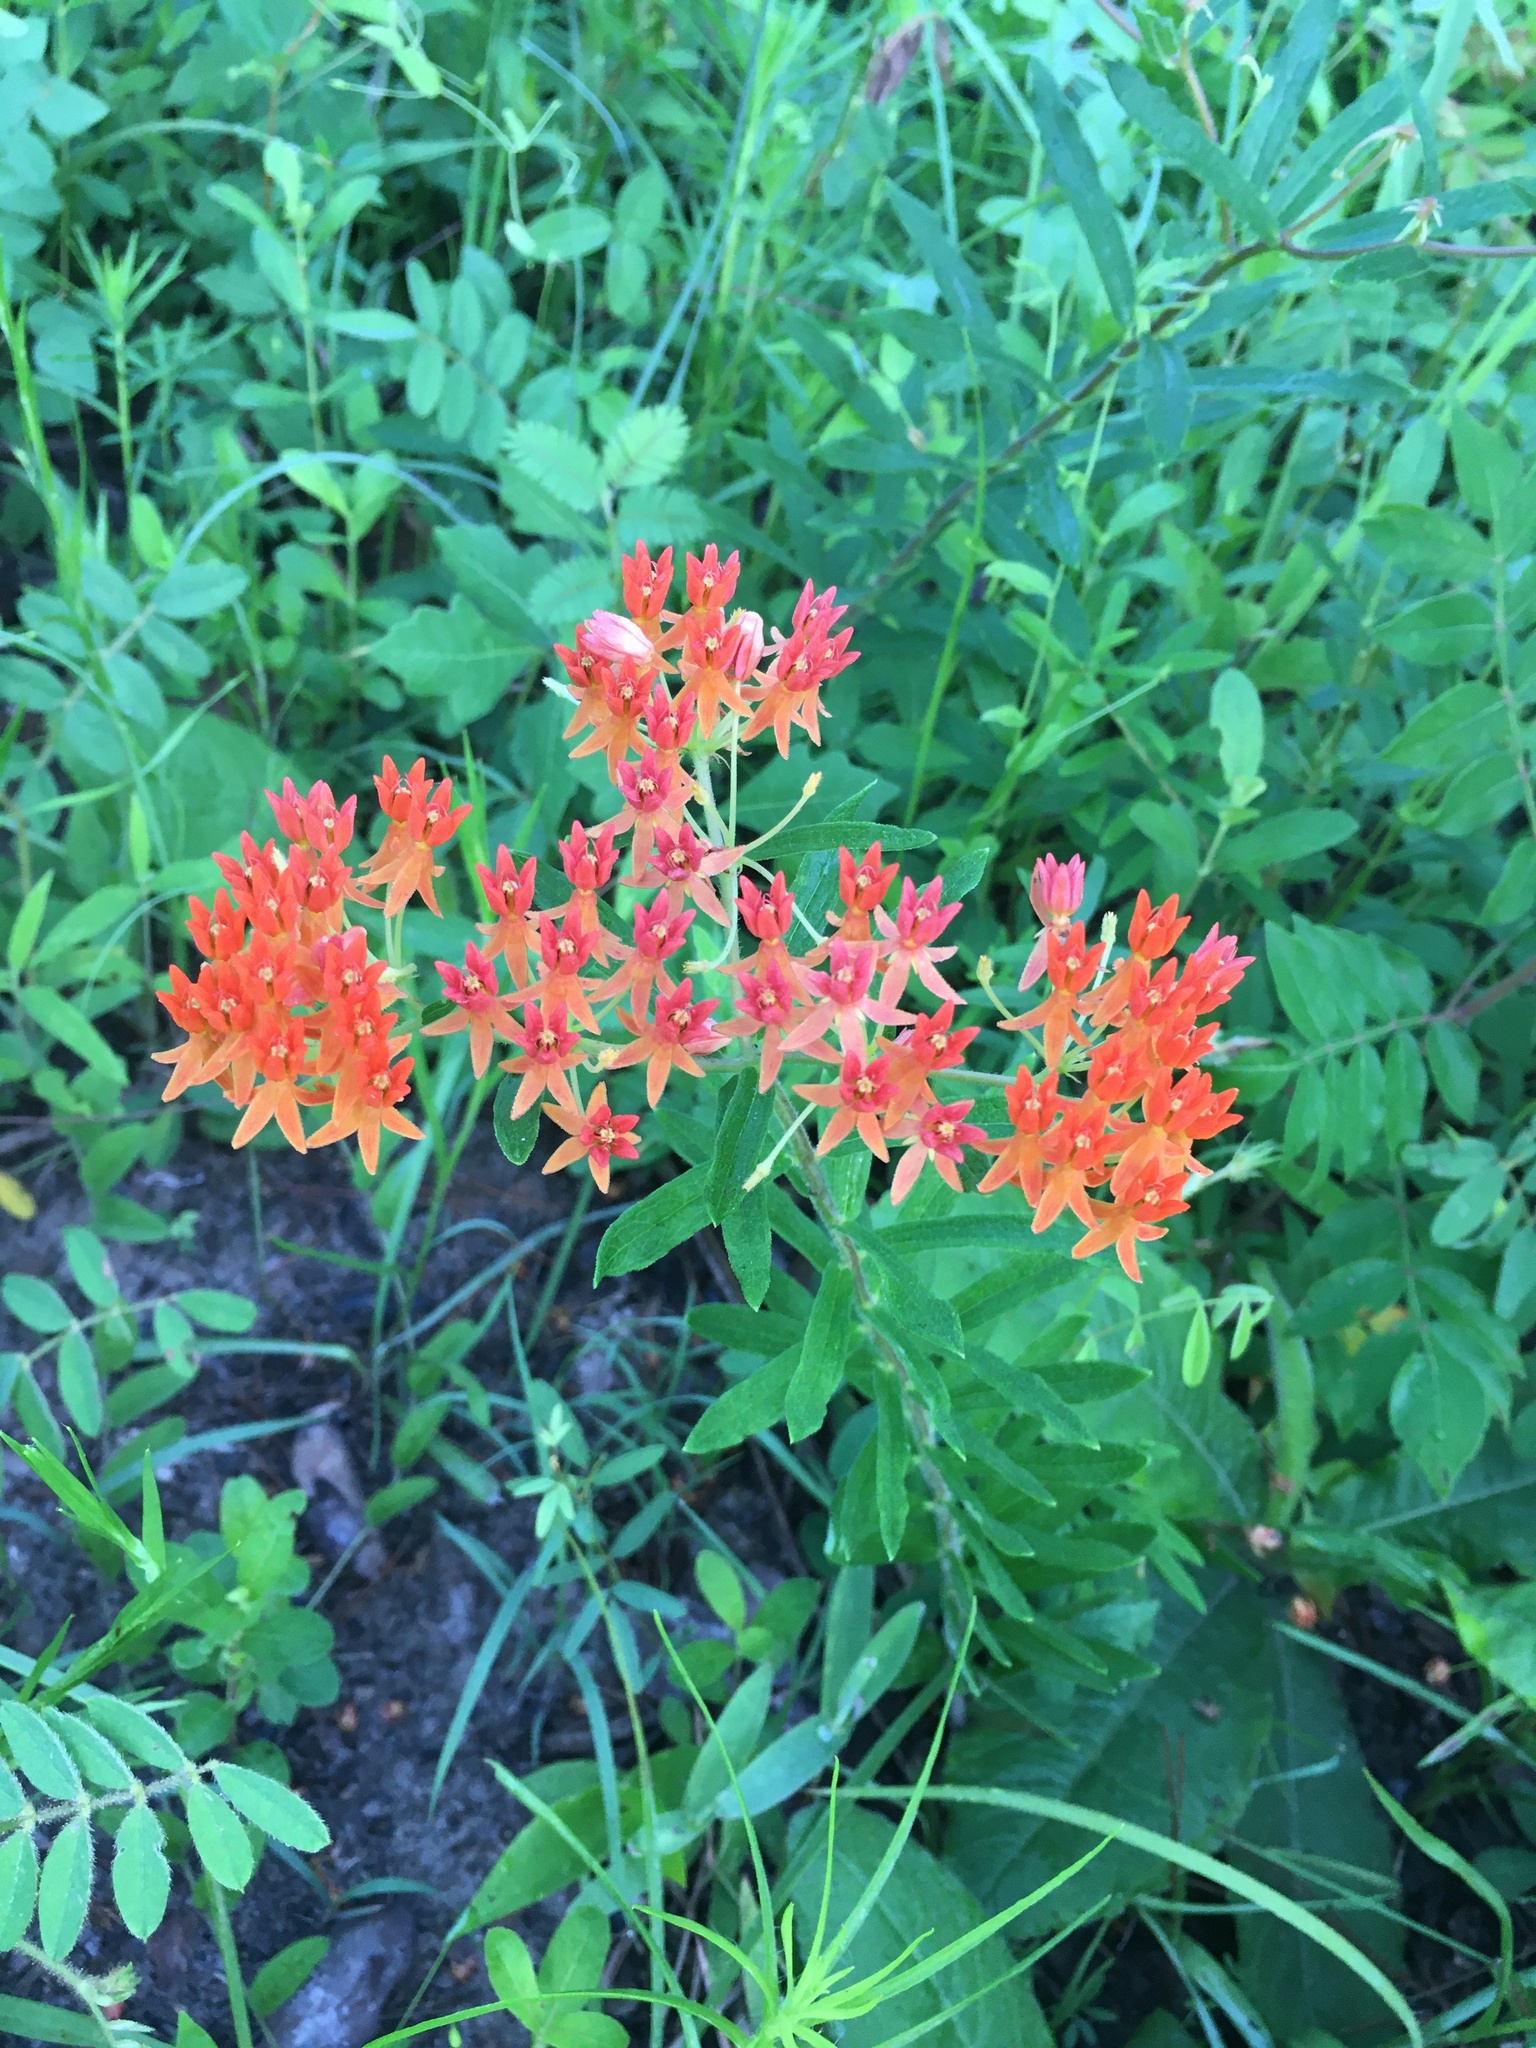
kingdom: Plantae
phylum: Tracheophyta
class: Magnoliopsida
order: Gentianales
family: Apocynaceae
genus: Asclepias
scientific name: Asclepias tuberosa
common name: Butterfly milkweed
